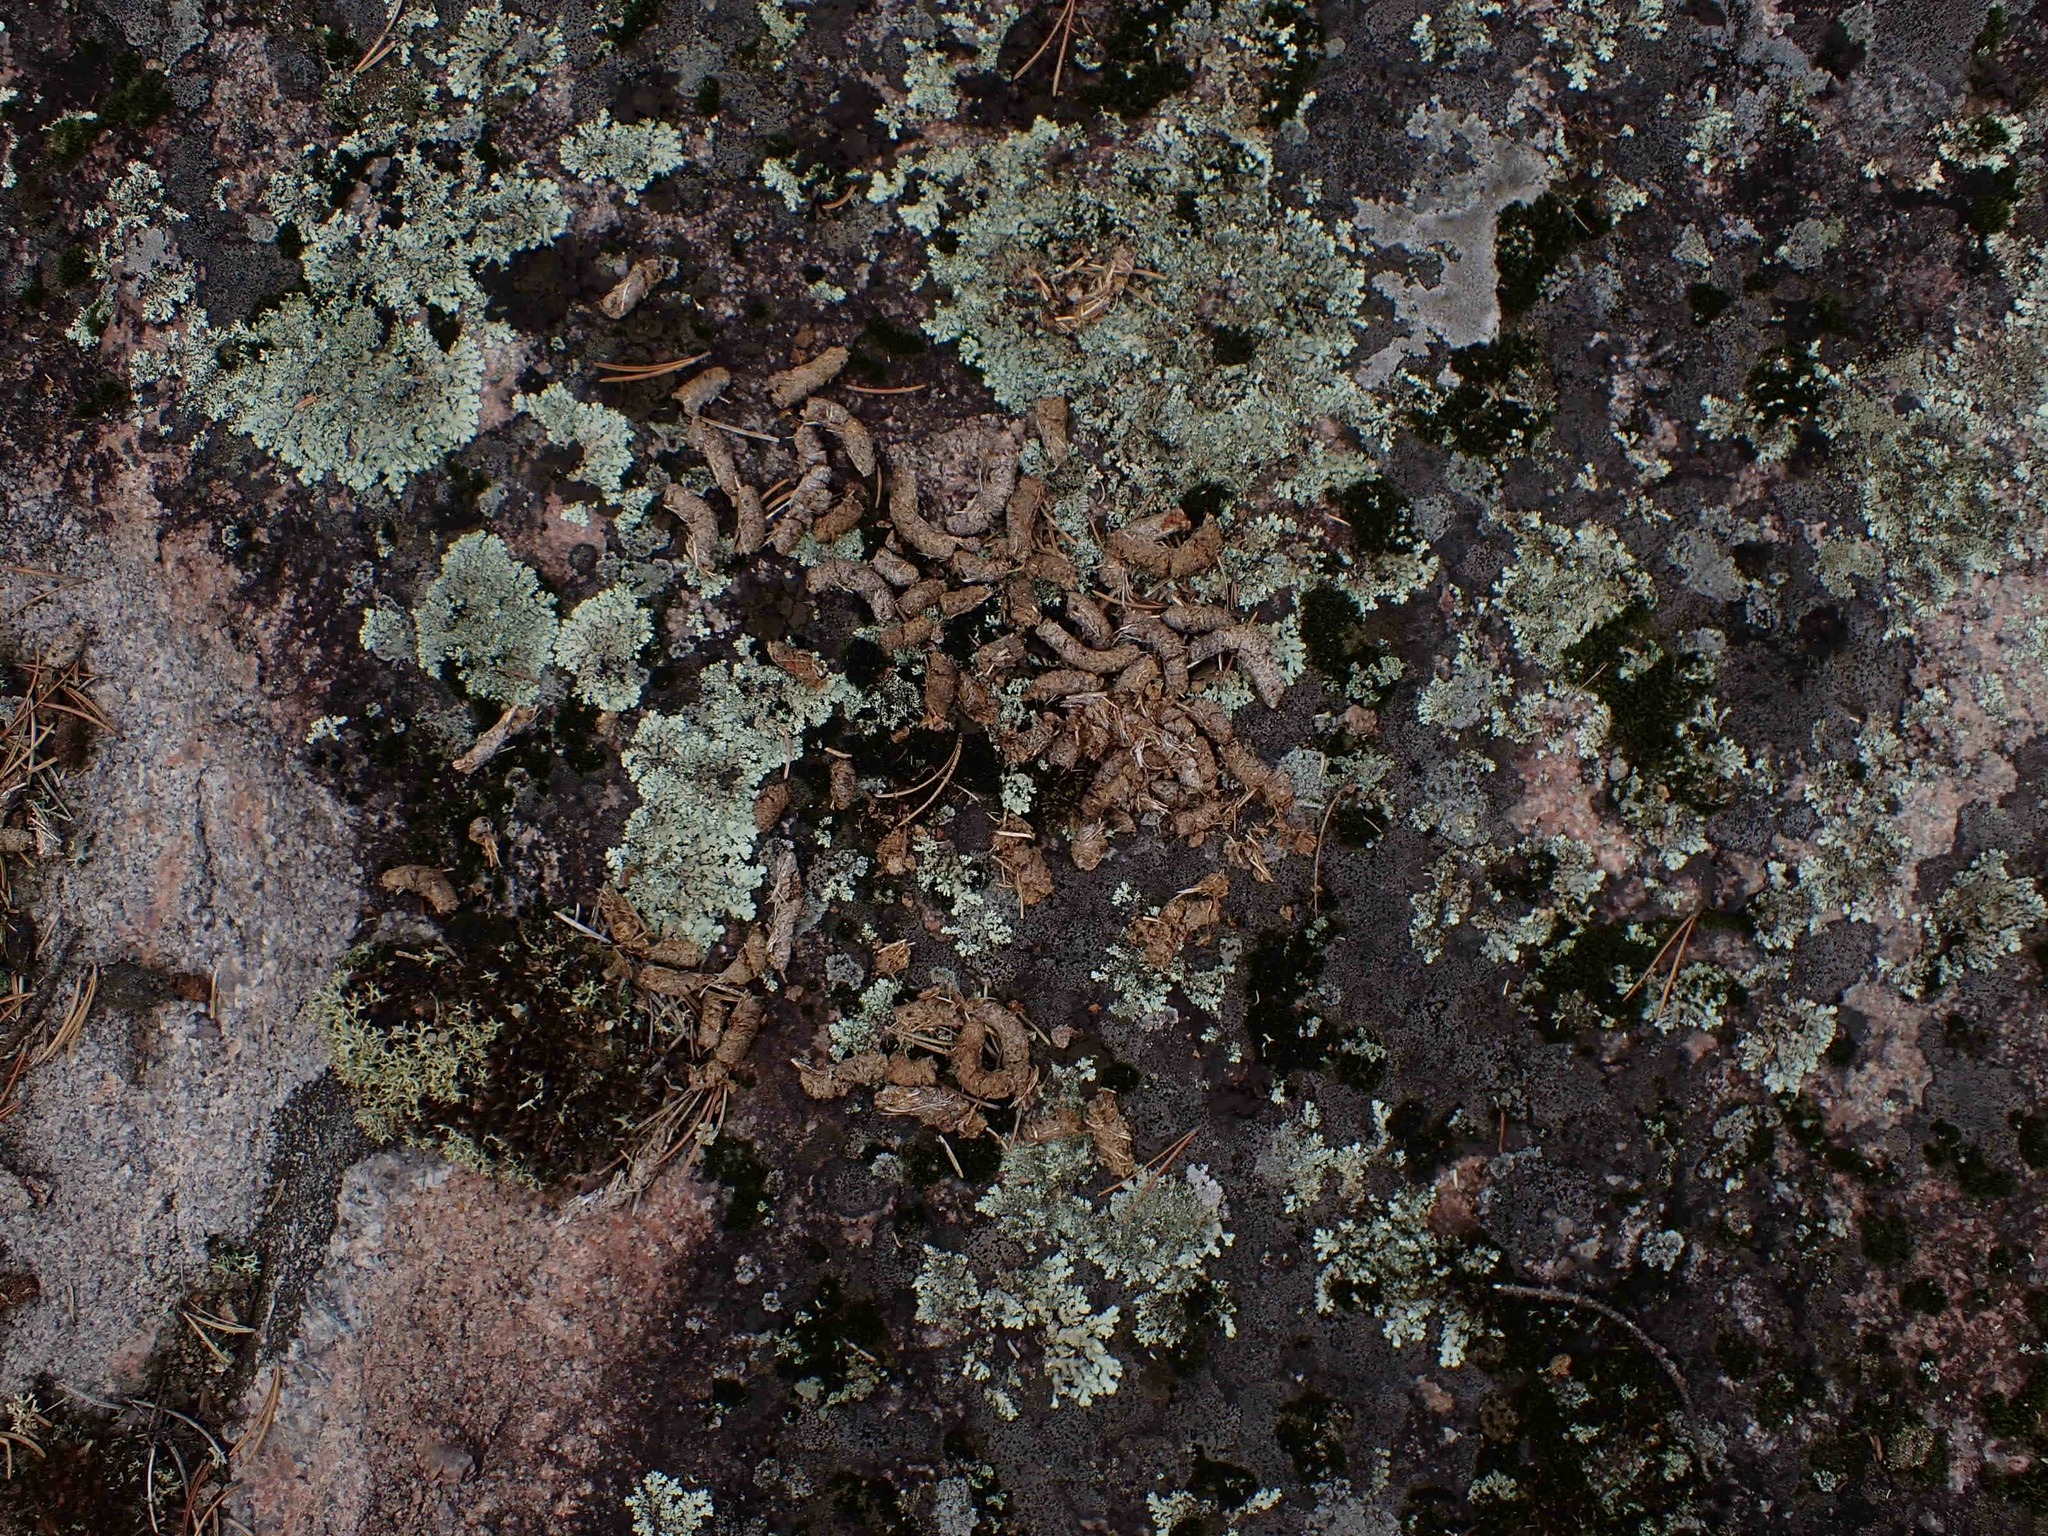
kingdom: Animalia
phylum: Chordata
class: Aves
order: Galliformes
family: Phasianidae
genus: Bonasa
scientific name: Bonasa umbellus
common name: Ruffed grouse
